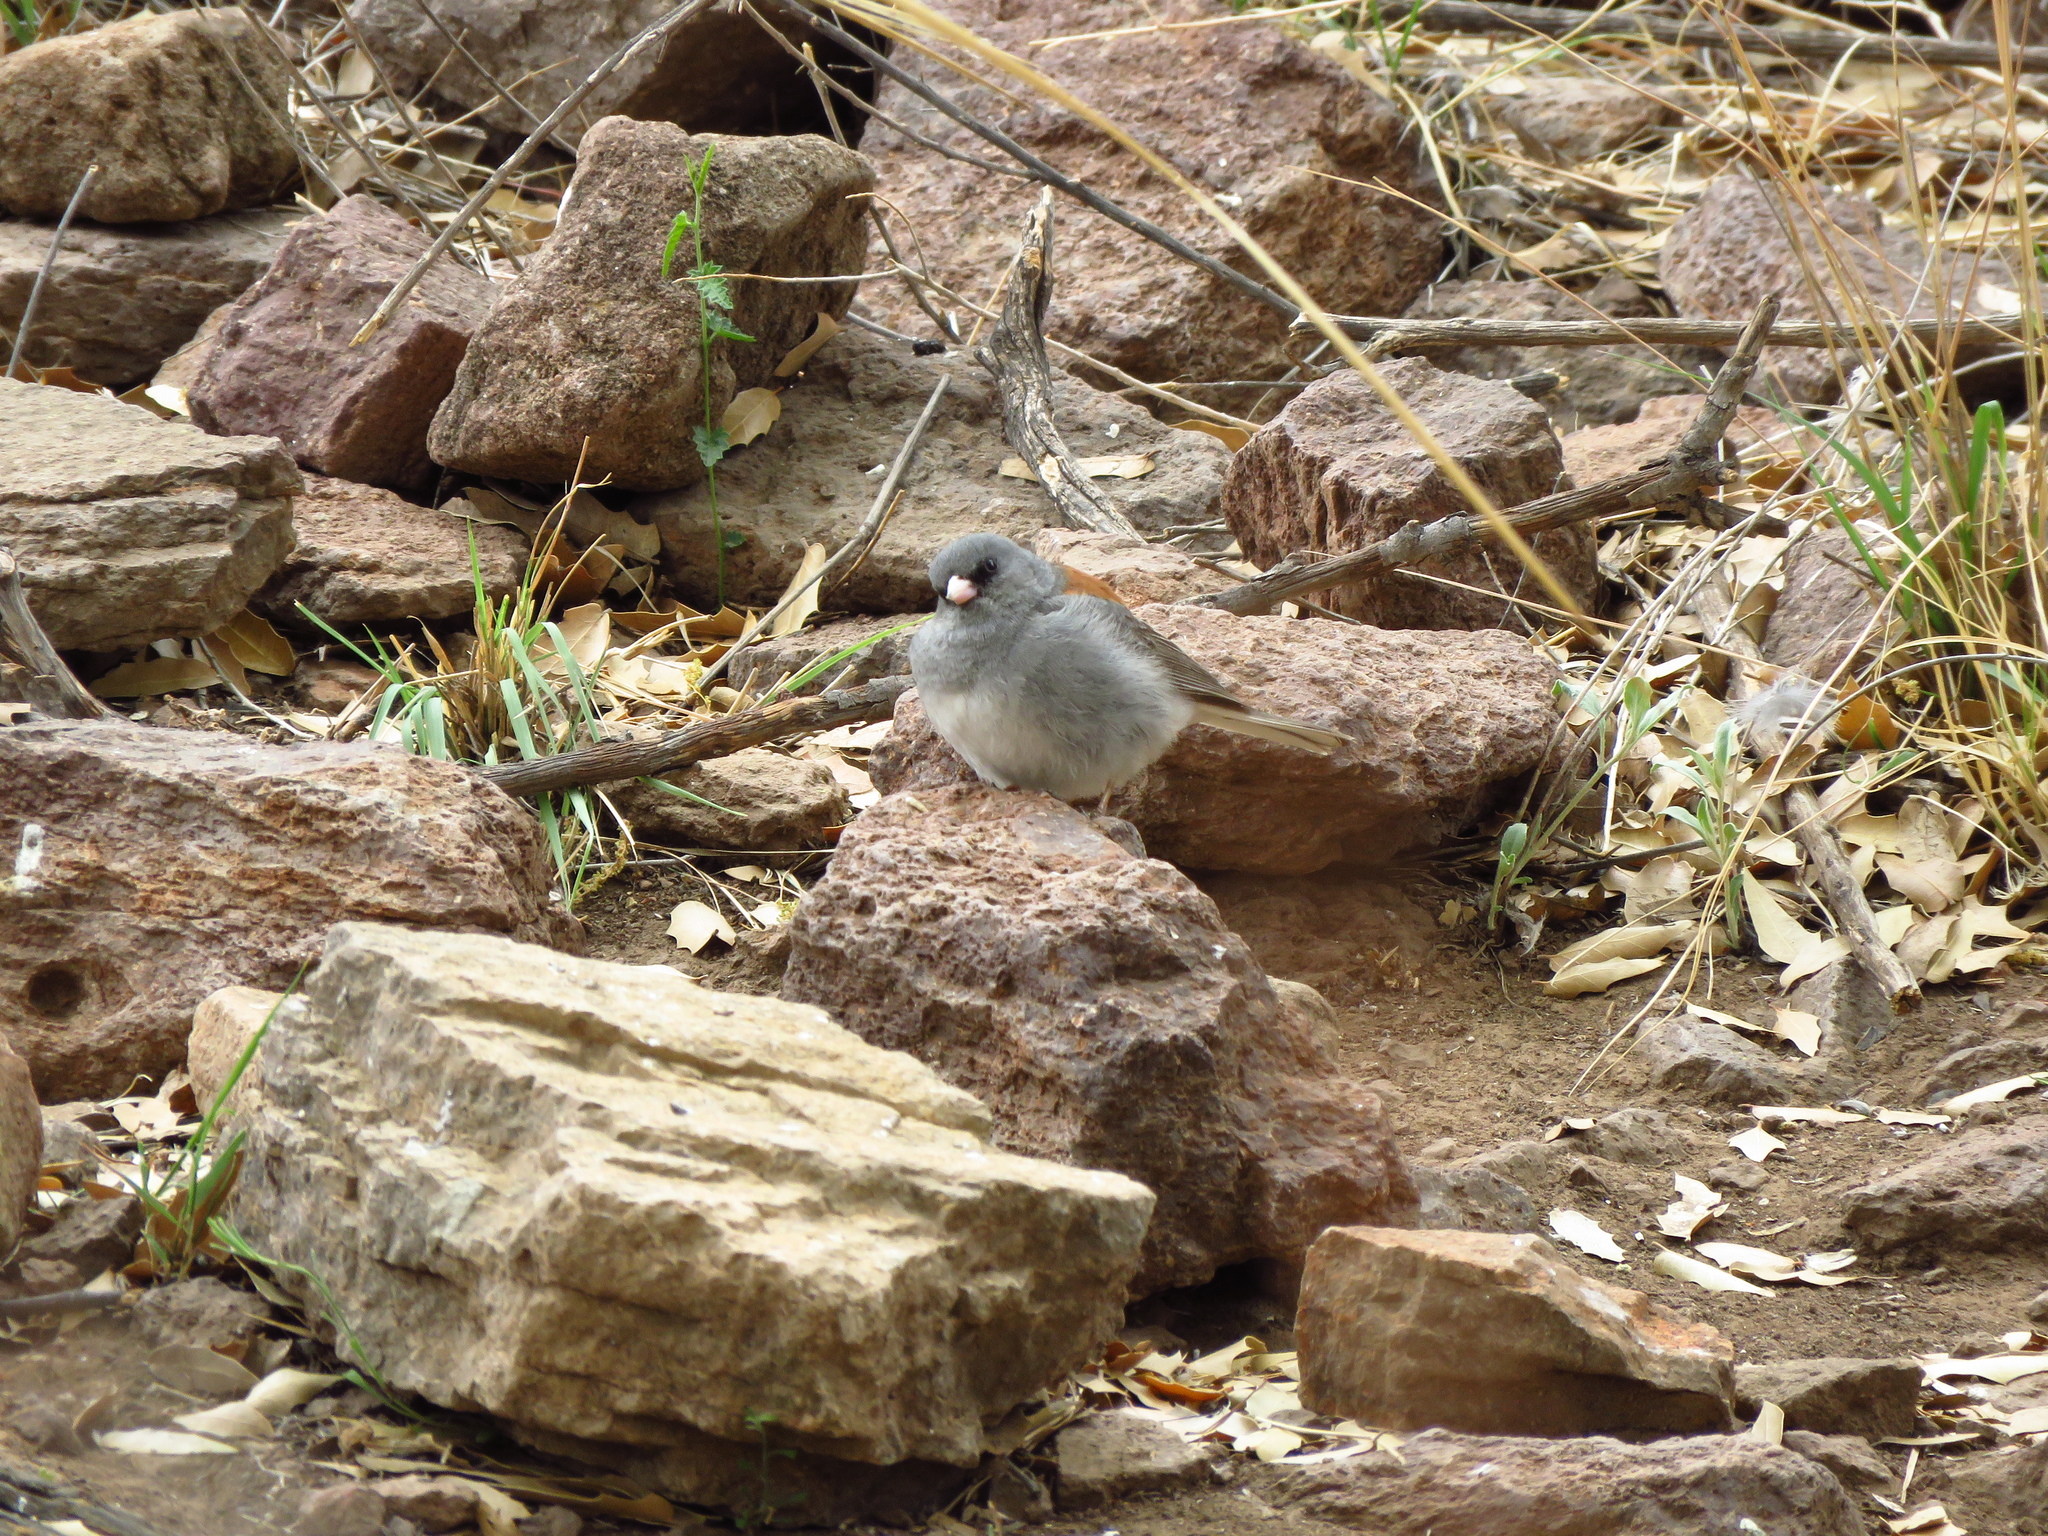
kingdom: Animalia
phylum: Chordata
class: Aves
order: Passeriformes
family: Passerellidae
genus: Junco
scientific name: Junco hyemalis
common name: Dark-eyed junco
